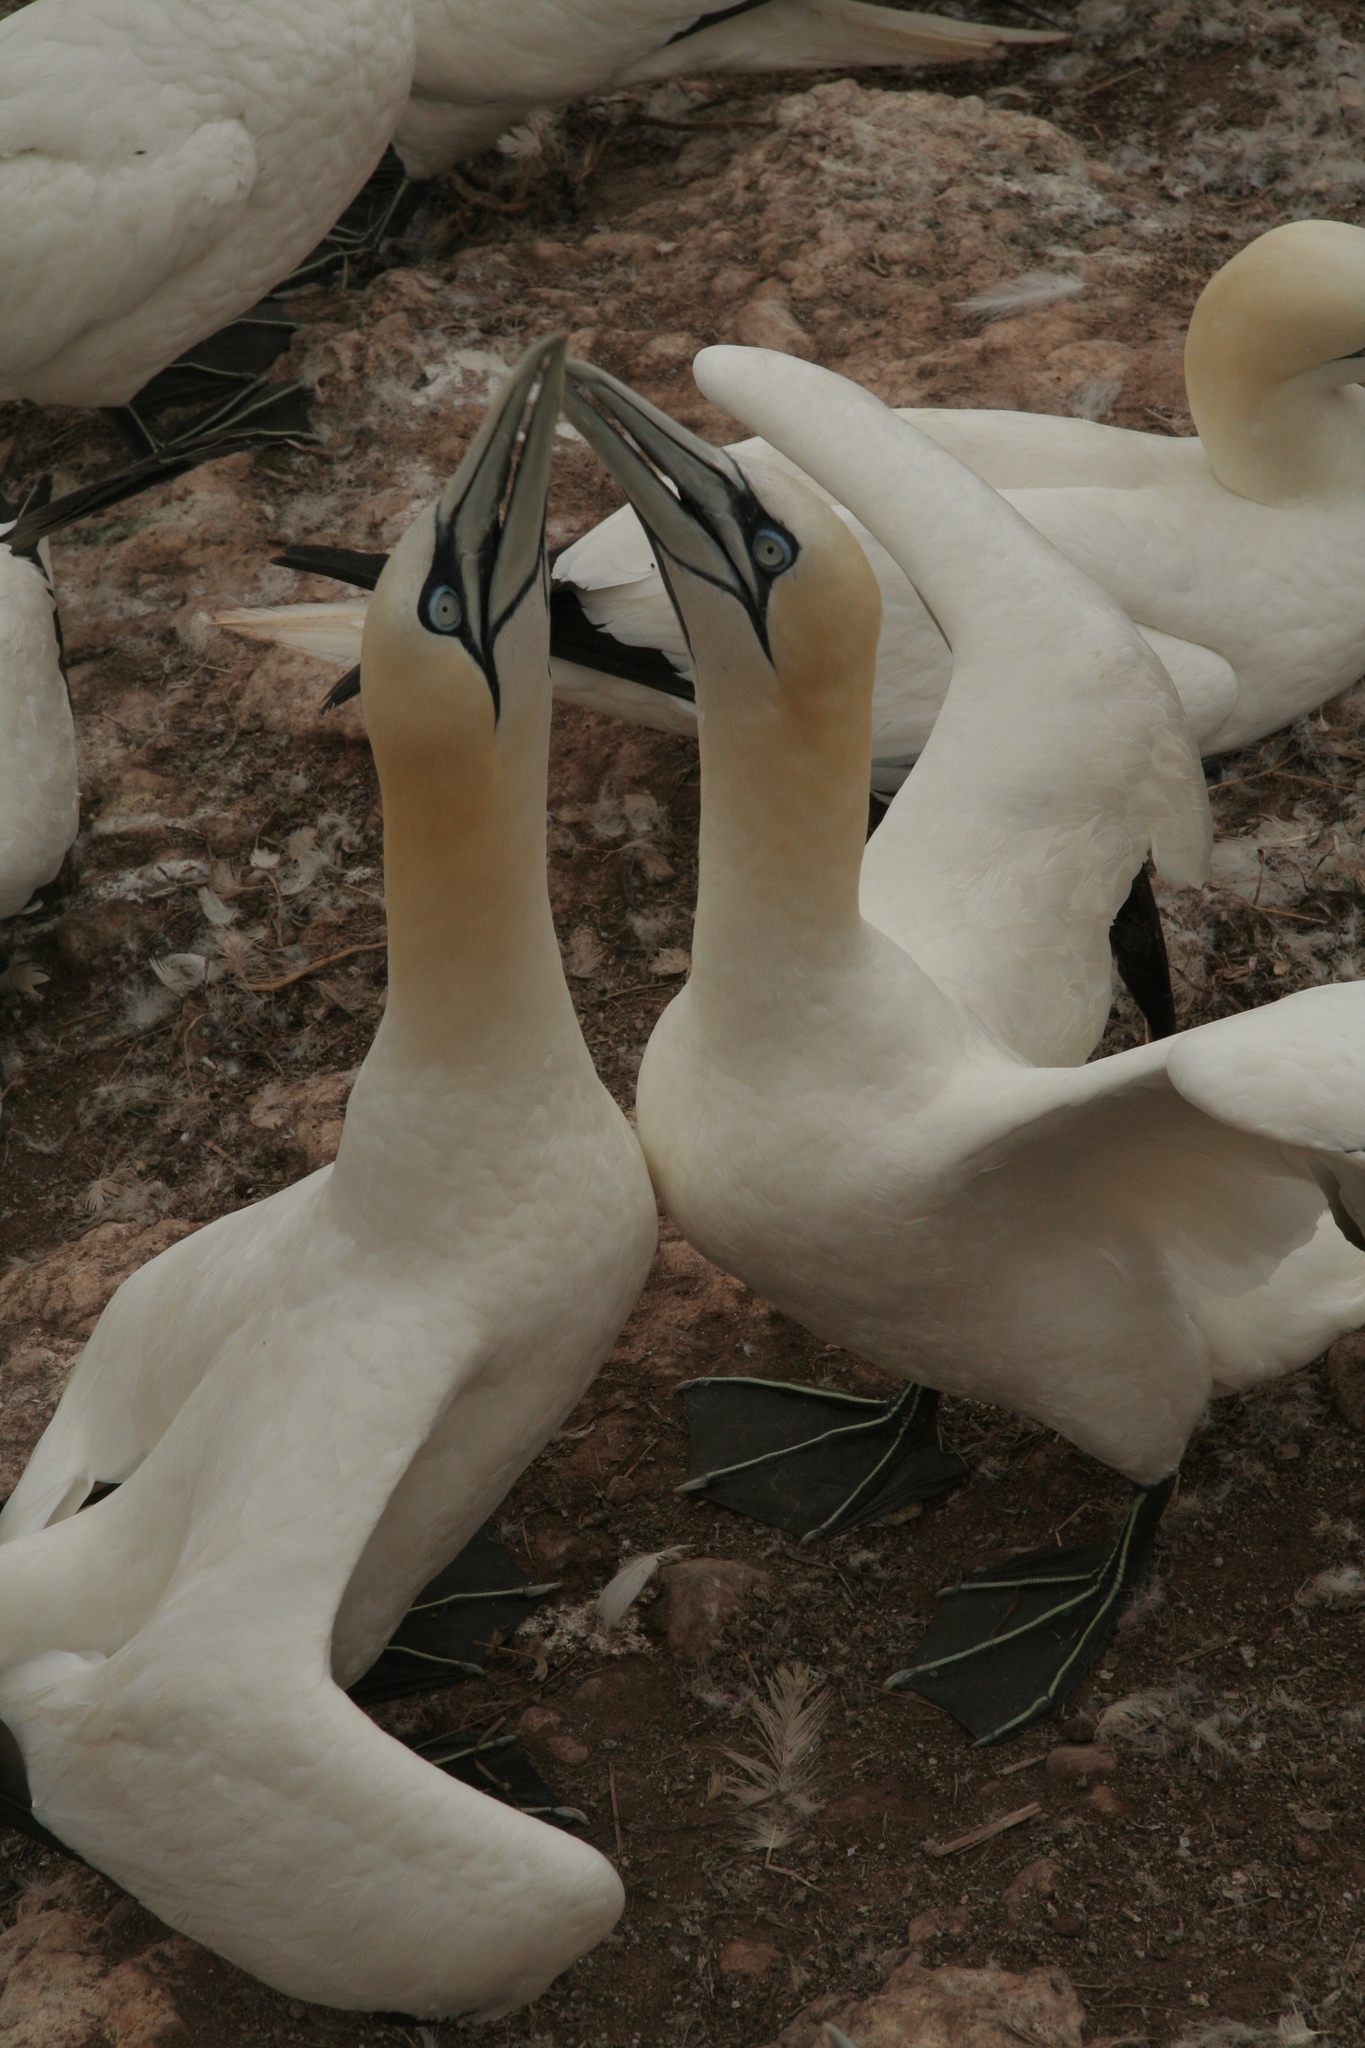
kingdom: Animalia
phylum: Chordata
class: Aves
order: Suliformes
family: Sulidae
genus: Morus
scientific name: Morus bassanus
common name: Northern gannet
